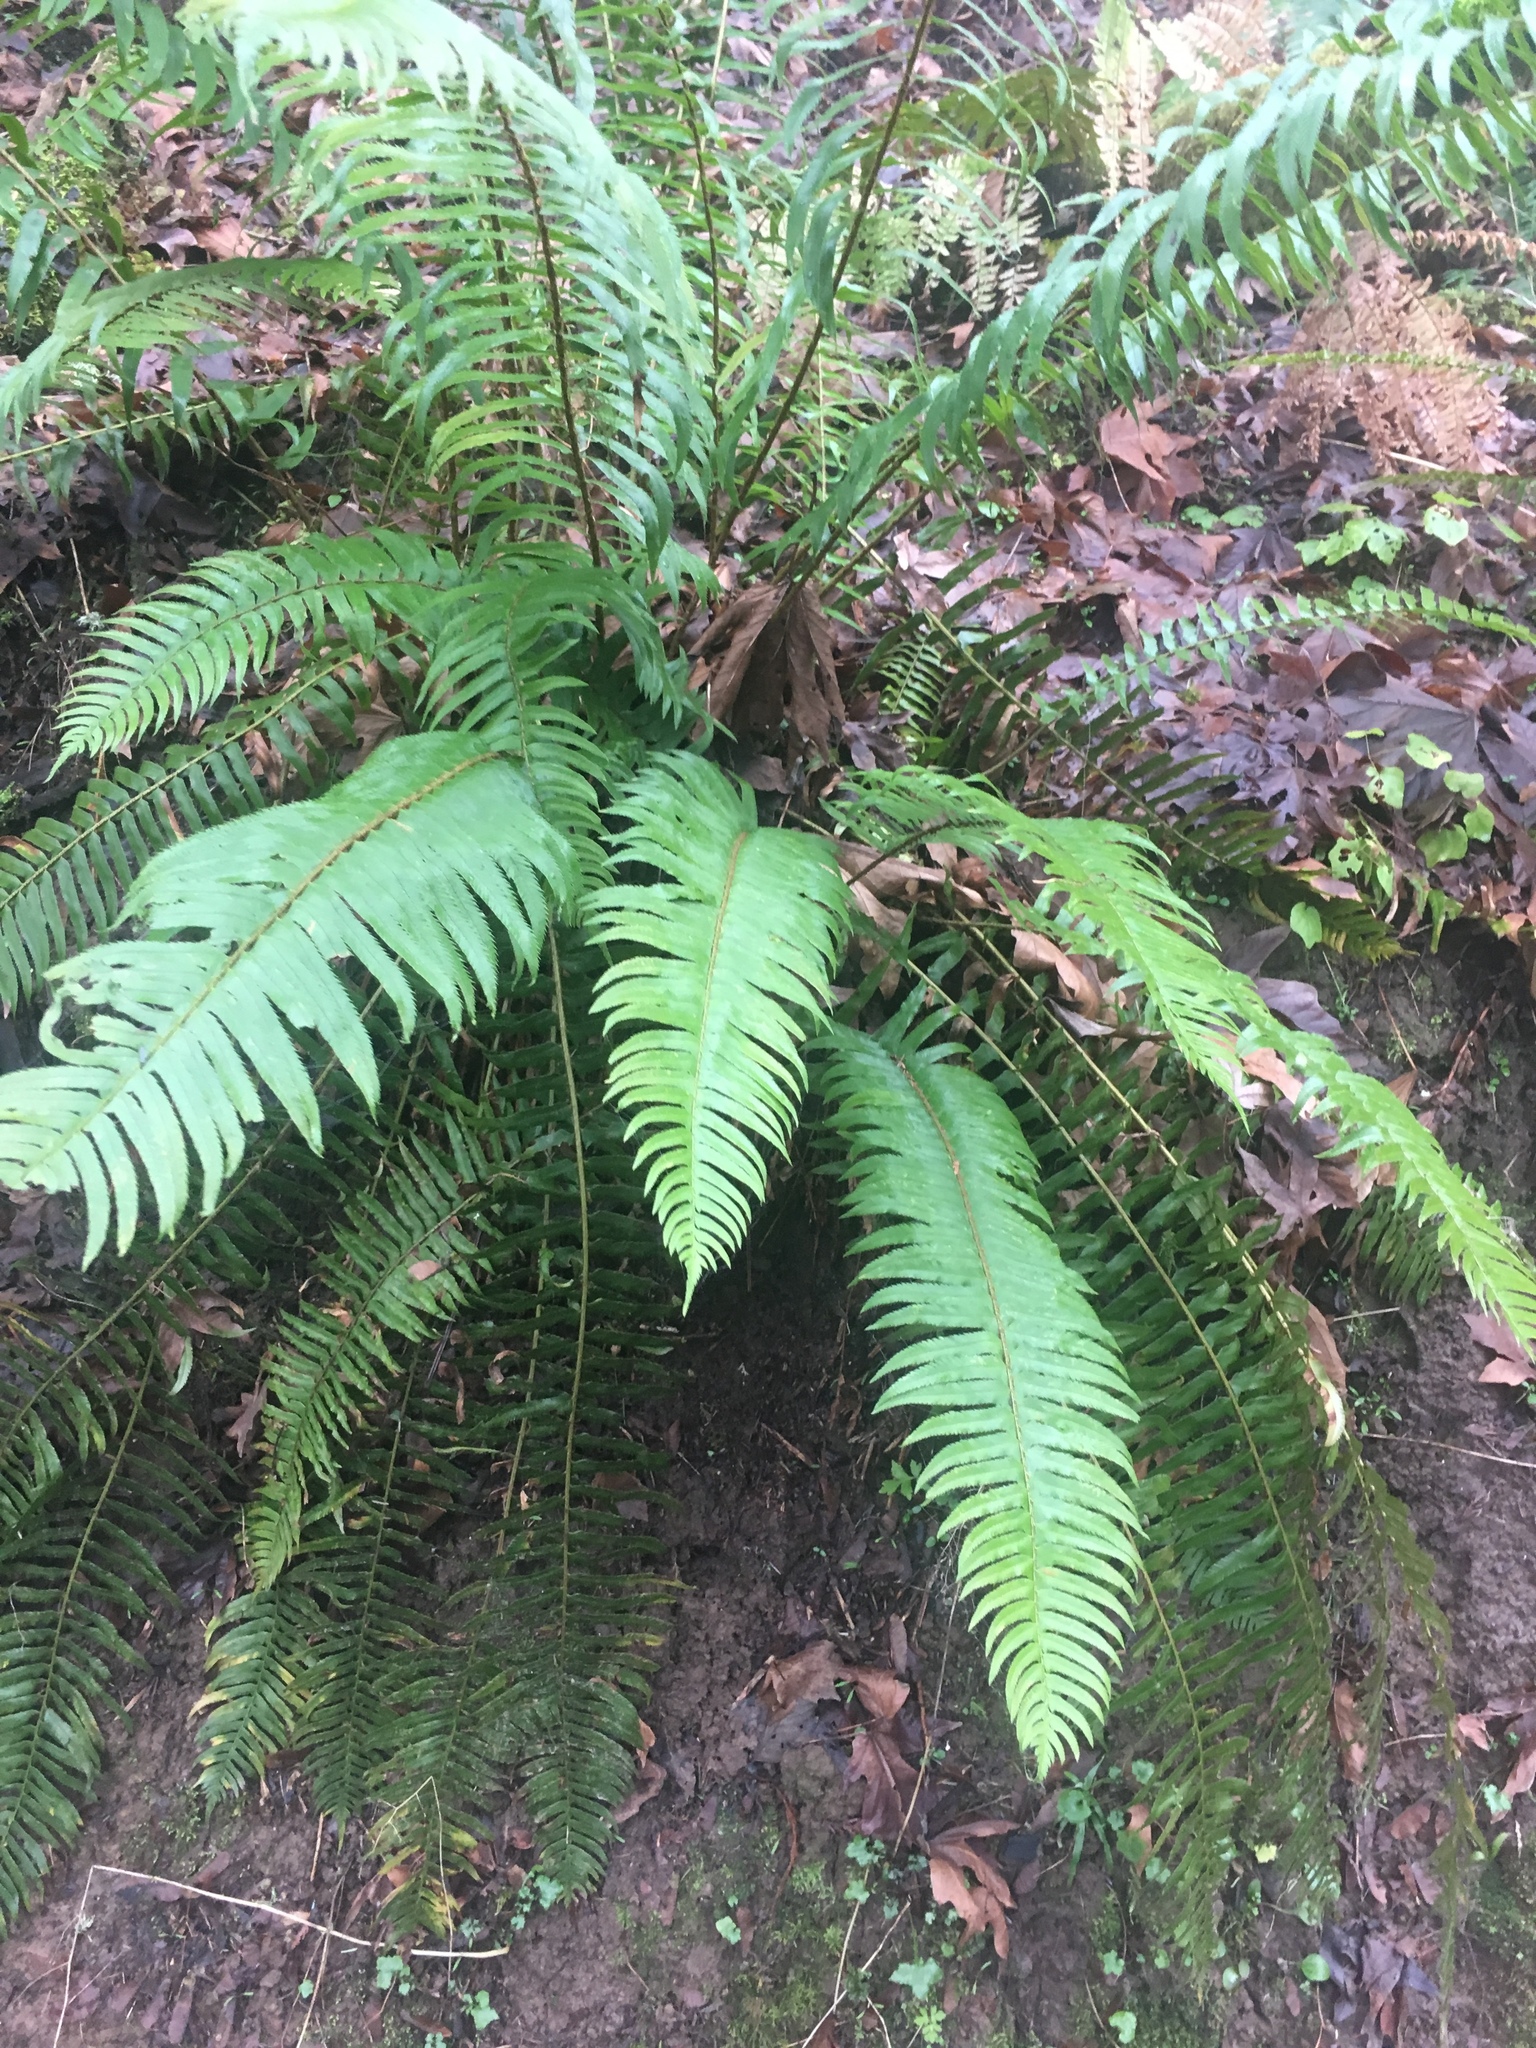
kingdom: Plantae
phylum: Tracheophyta
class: Polypodiopsida
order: Polypodiales
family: Dryopteridaceae
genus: Polystichum
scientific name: Polystichum munitum
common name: Western sword-fern
